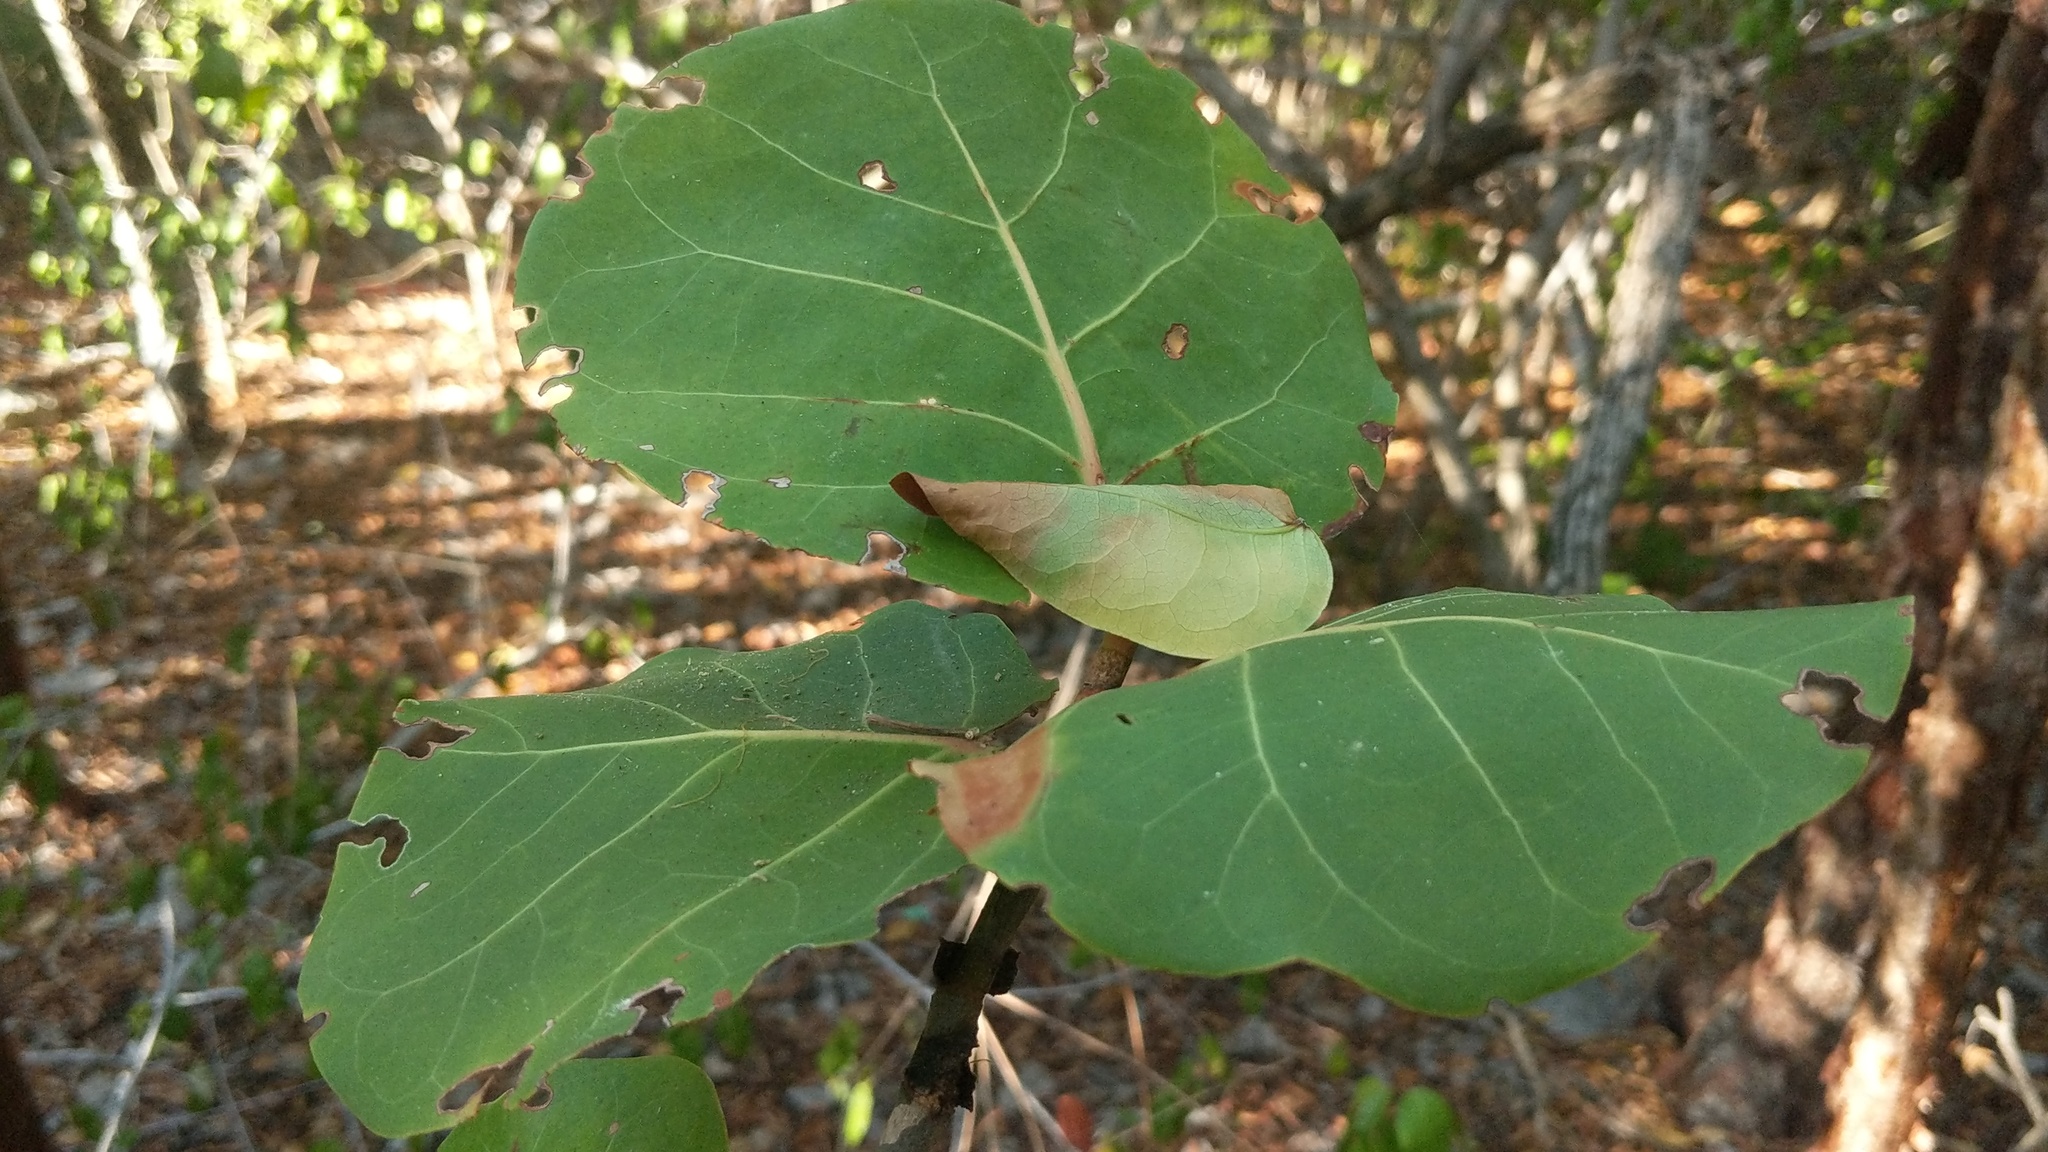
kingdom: Plantae
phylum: Tracheophyta
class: Magnoliopsida
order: Caryophyllales
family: Polygonaceae
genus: Coccoloba
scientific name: Coccoloba uvifera
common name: Seagrape
